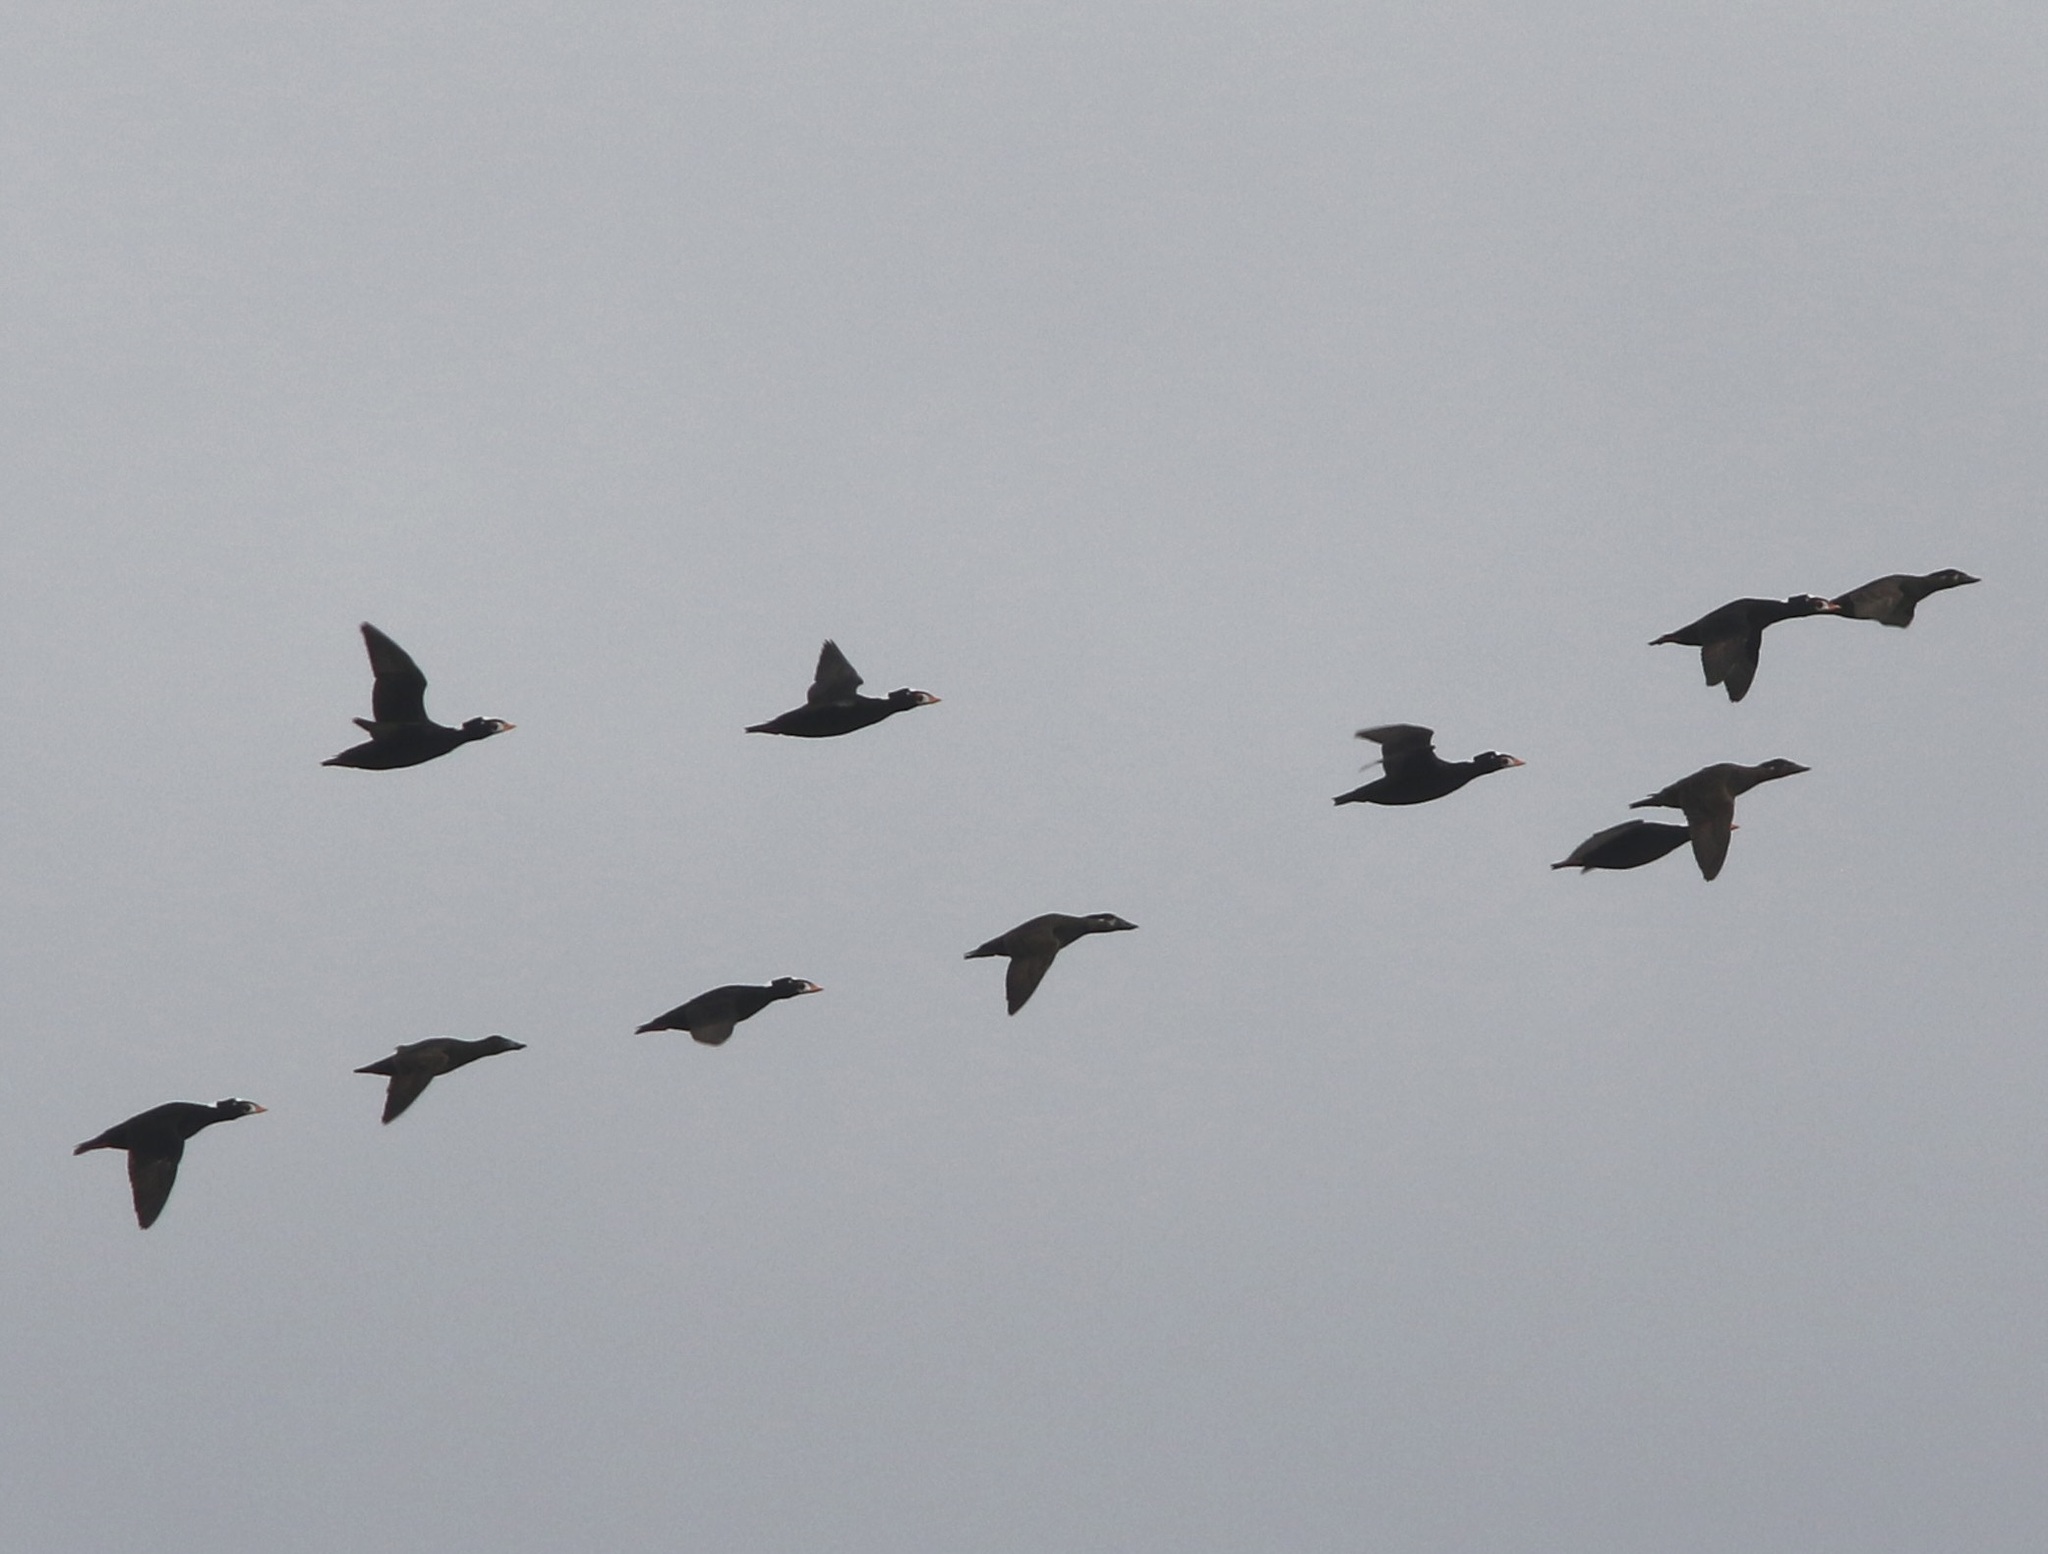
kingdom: Animalia
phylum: Chordata
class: Aves
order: Anseriformes
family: Anatidae
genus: Melanitta
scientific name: Melanitta perspicillata
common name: Surf scoter
